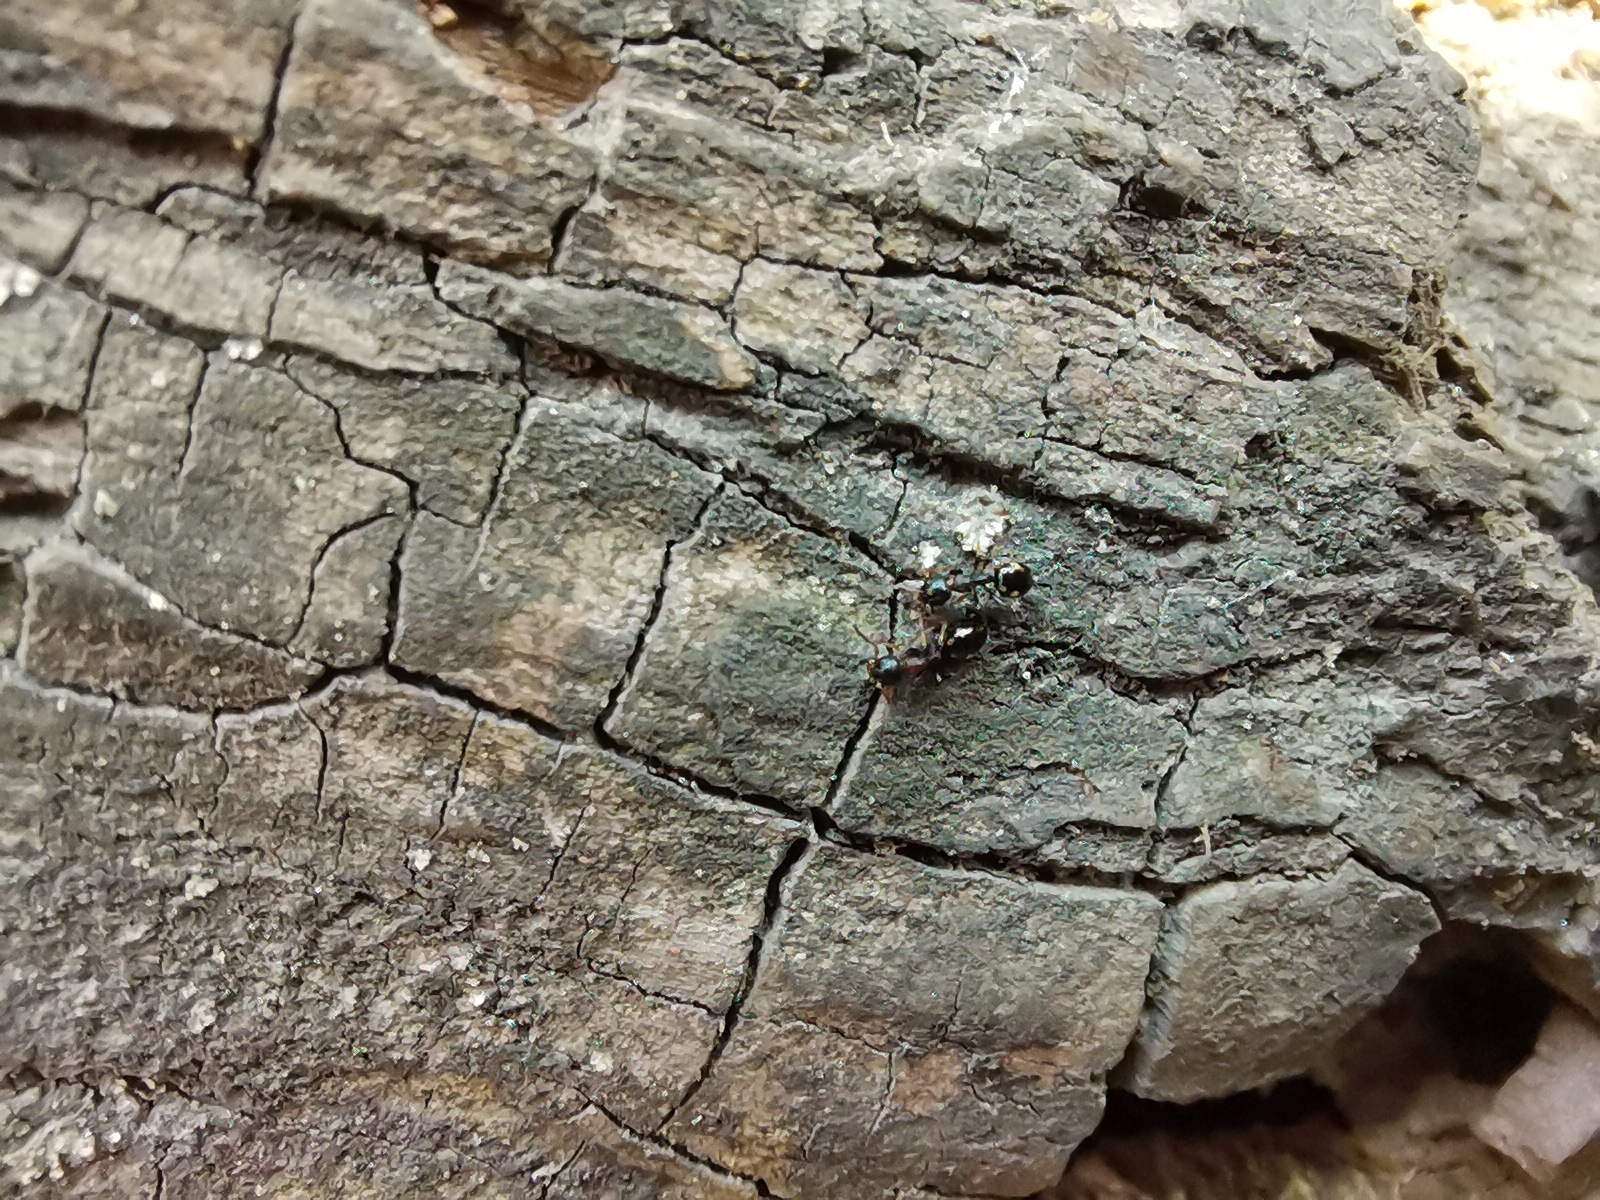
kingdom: Animalia
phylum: Arthropoda
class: Insecta
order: Hymenoptera
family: Formicidae
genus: Dolichoderus
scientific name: Dolichoderus quadripunctatus
